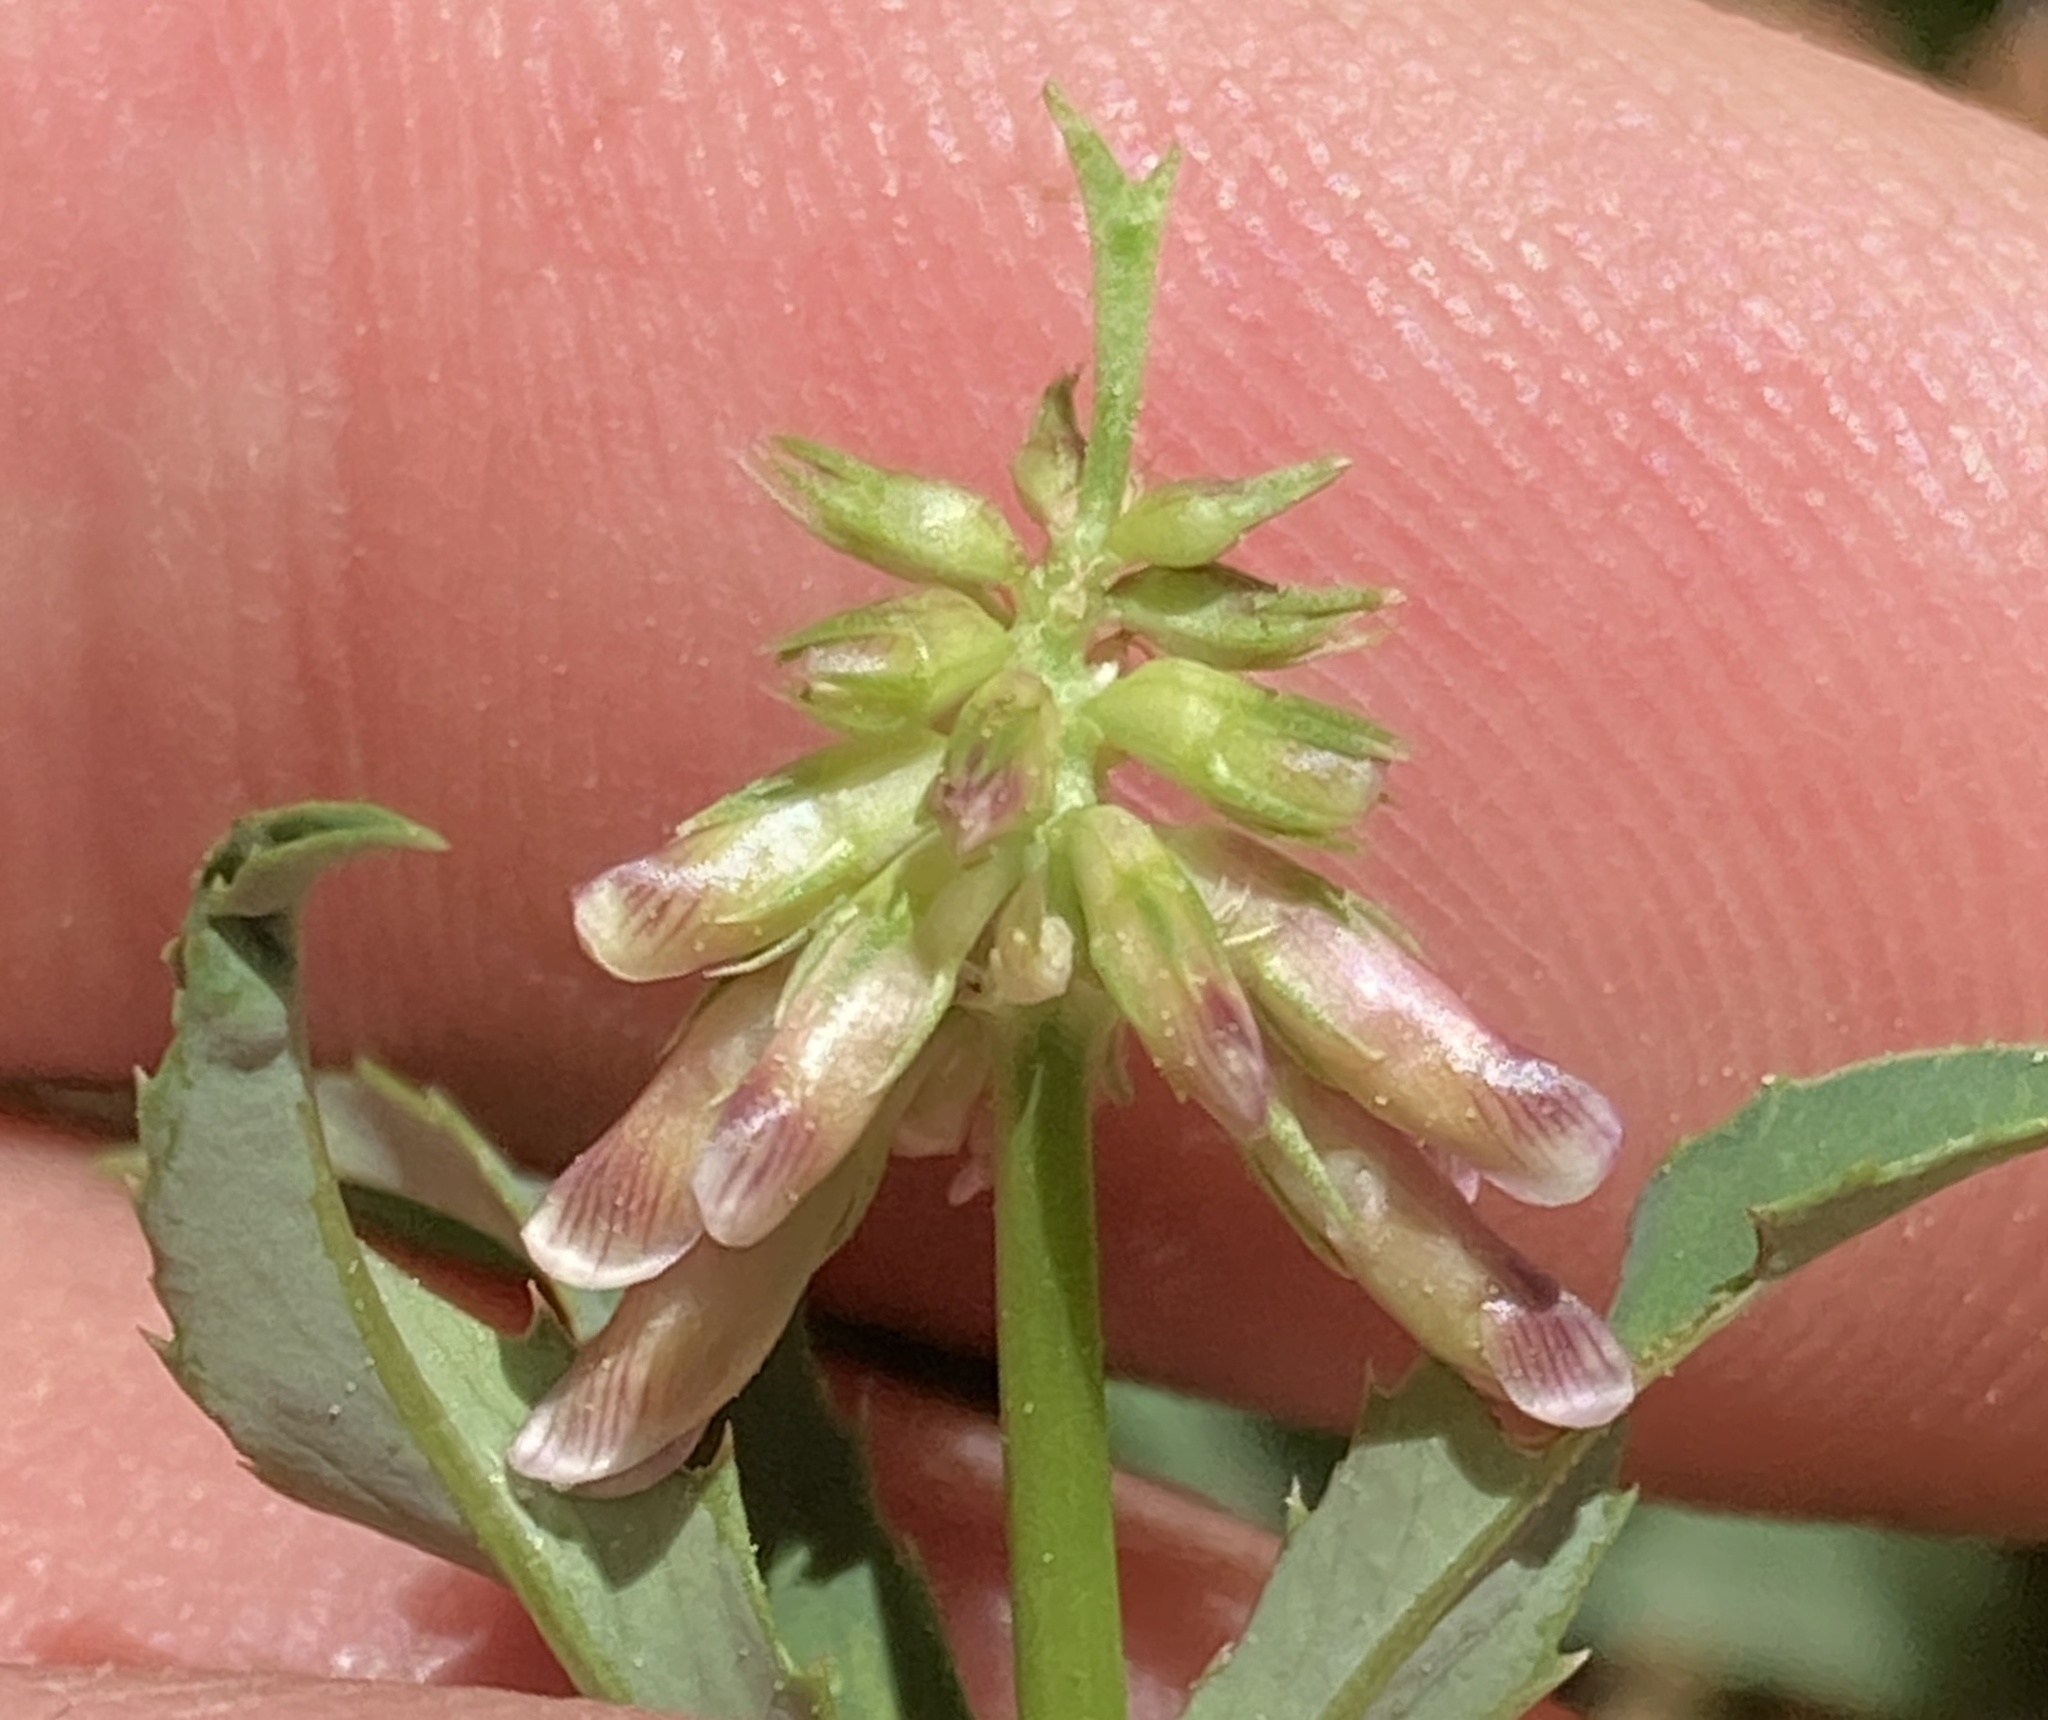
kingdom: Plantae
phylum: Tracheophyta
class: Magnoliopsida
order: Fabales
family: Fabaceae
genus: Trifolium
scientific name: Trifolium productum
